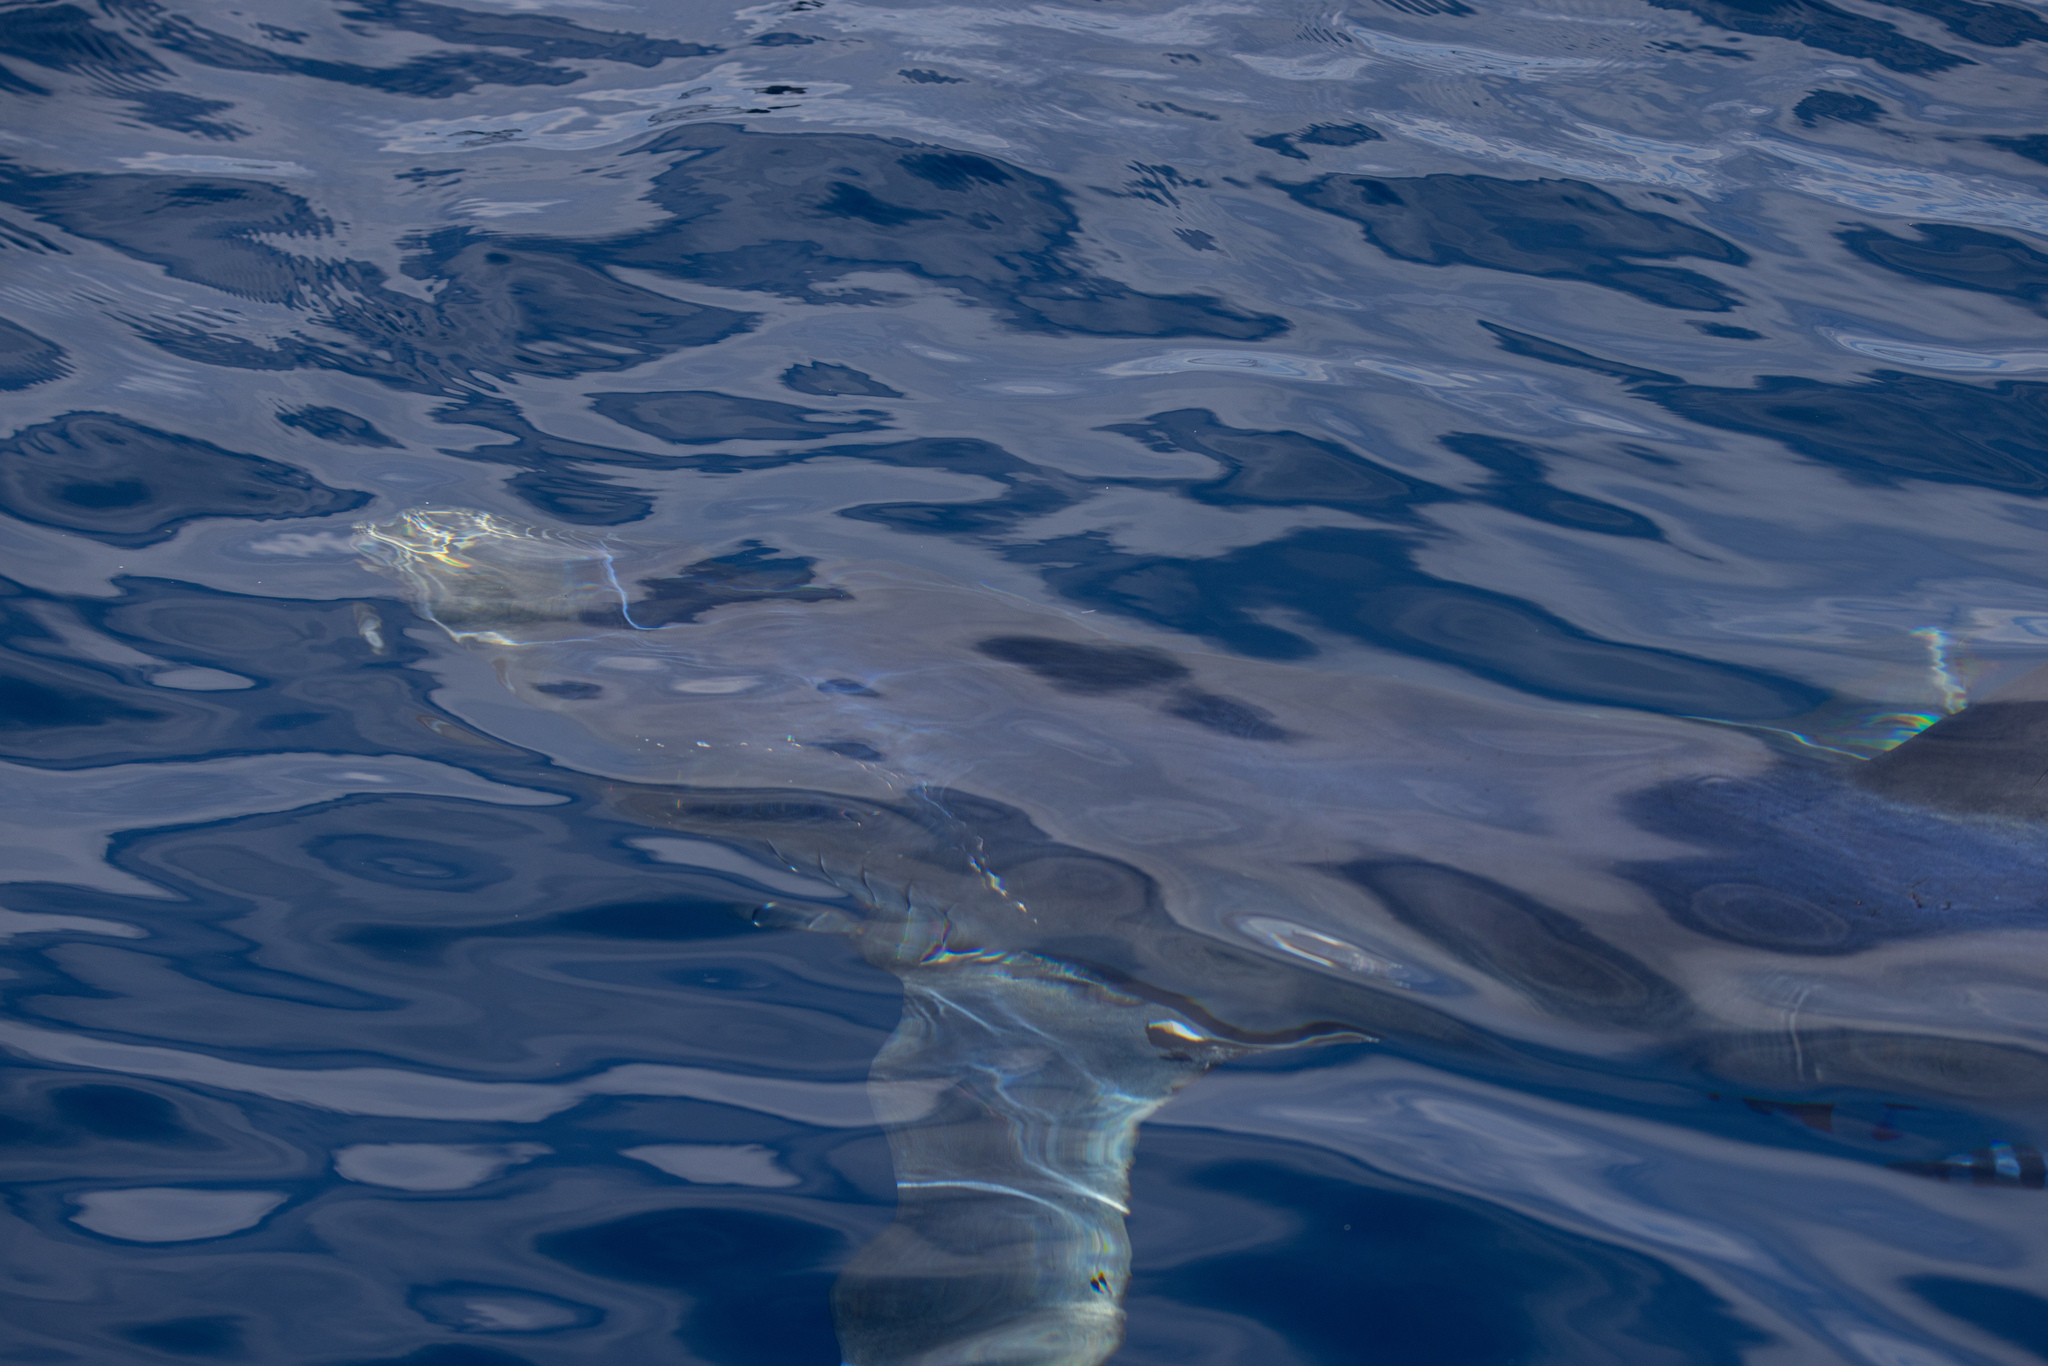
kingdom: Animalia
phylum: Chordata
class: Elasmobranchii
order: Carcharhiniformes
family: Carcharhinidae
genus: Prionace
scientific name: Prionace glauca
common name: Blue shark
